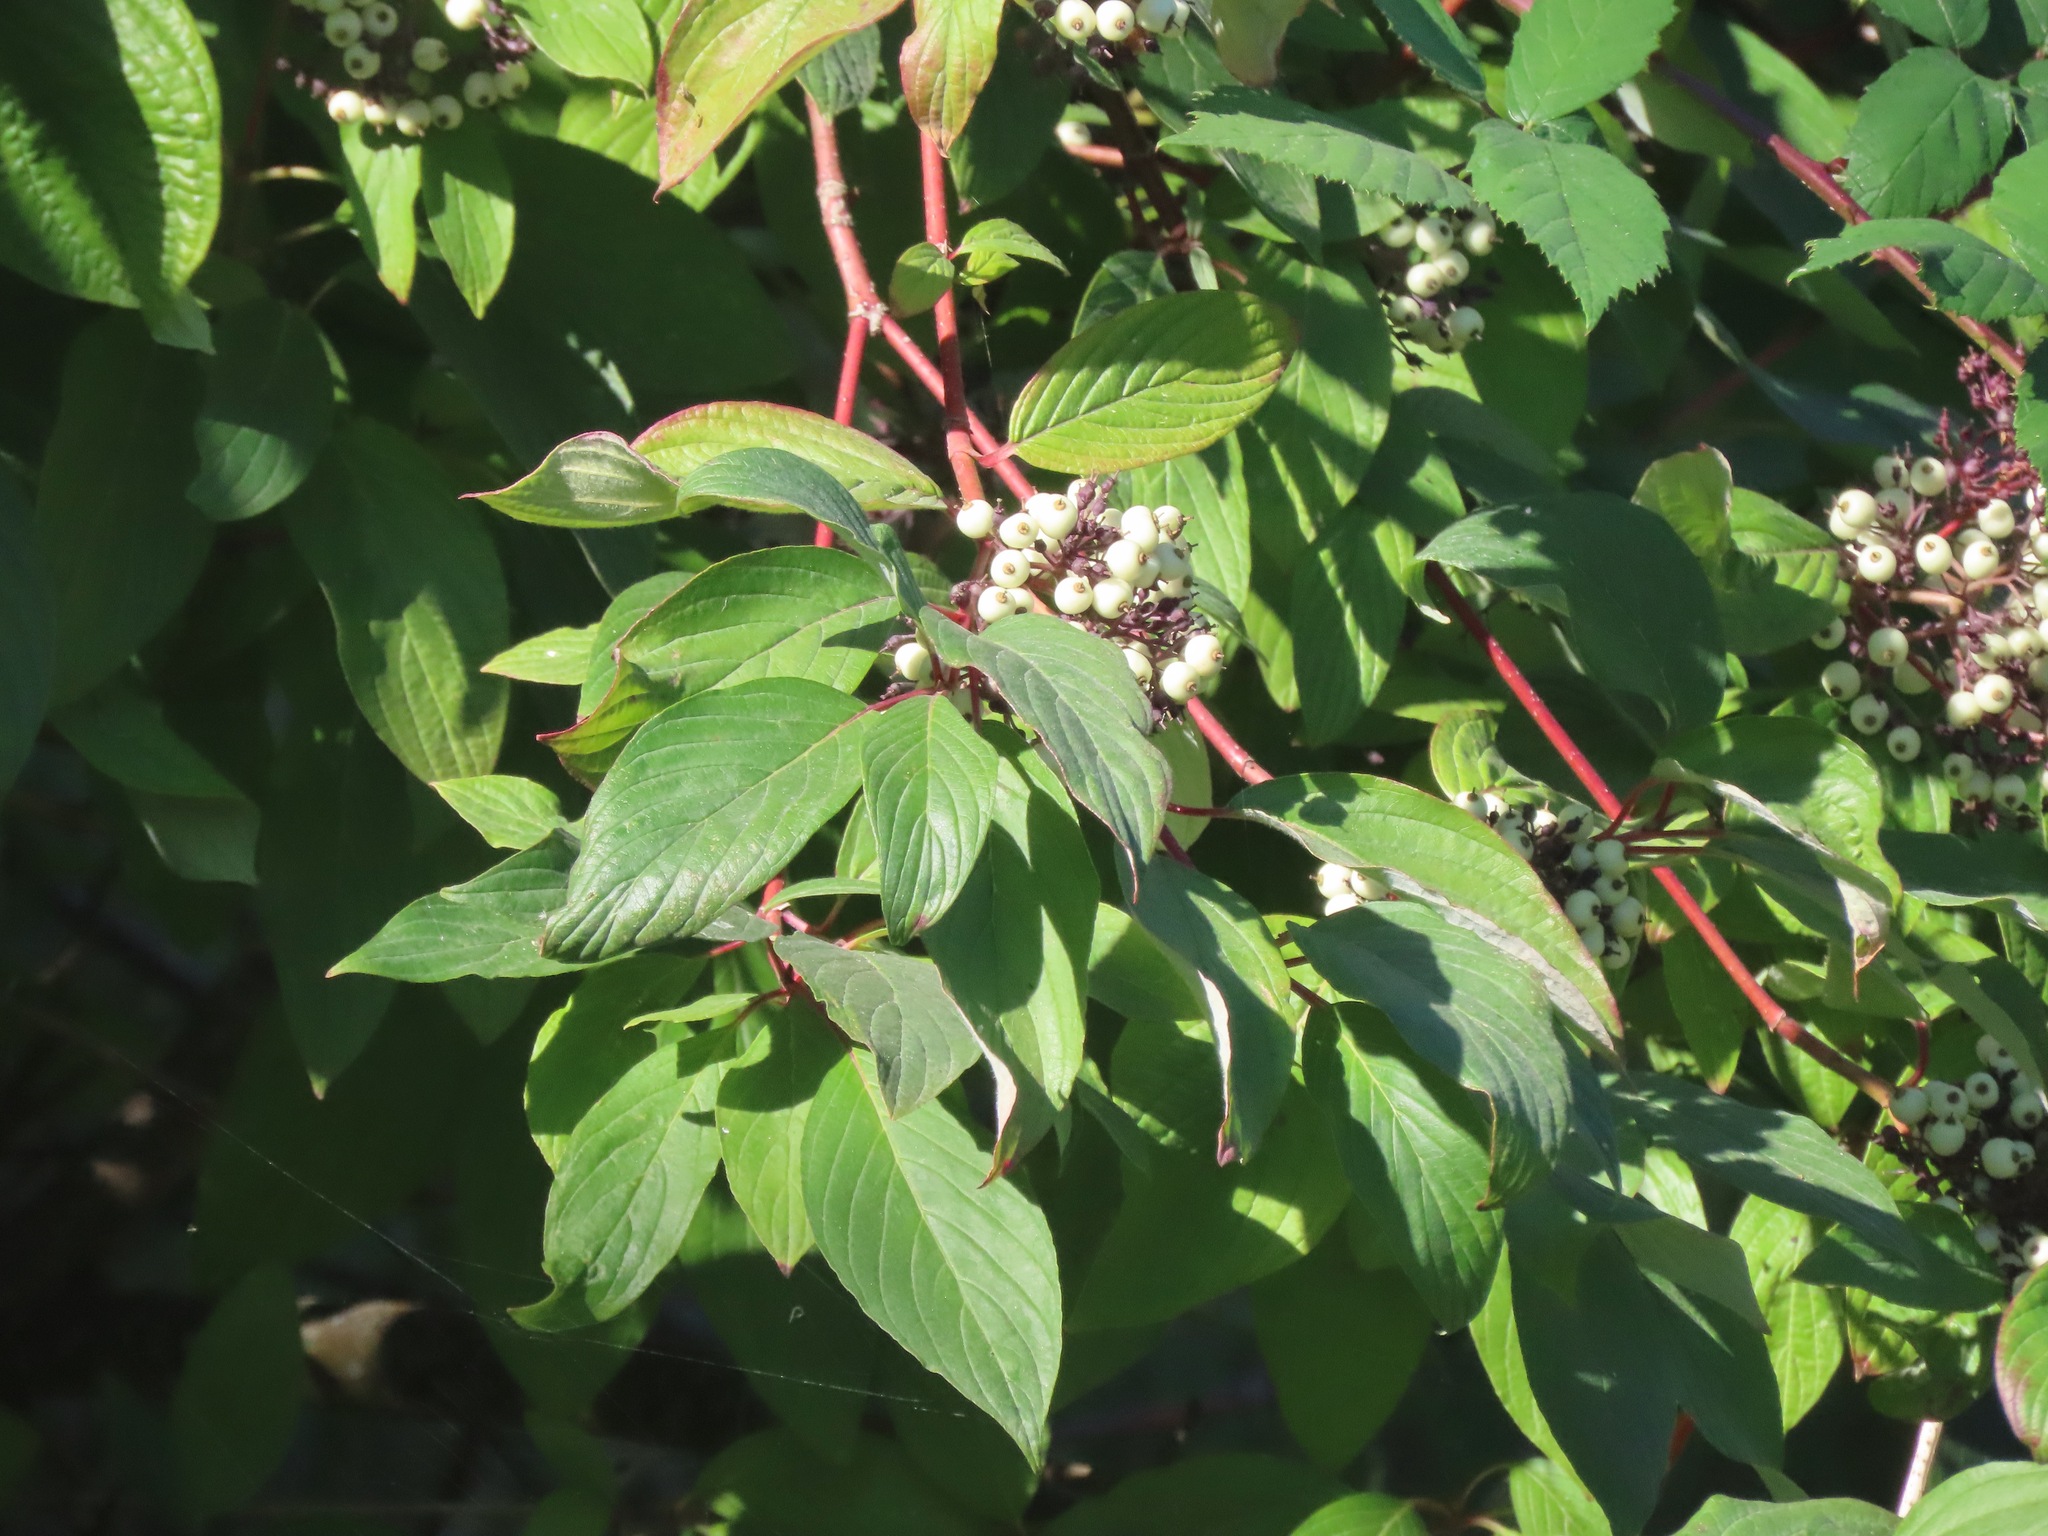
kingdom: Plantae
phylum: Tracheophyta
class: Magnoliopsida
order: Cornales
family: Cornaceae
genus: Cornus
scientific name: Cornus sericea
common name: Red-osier dogwood
